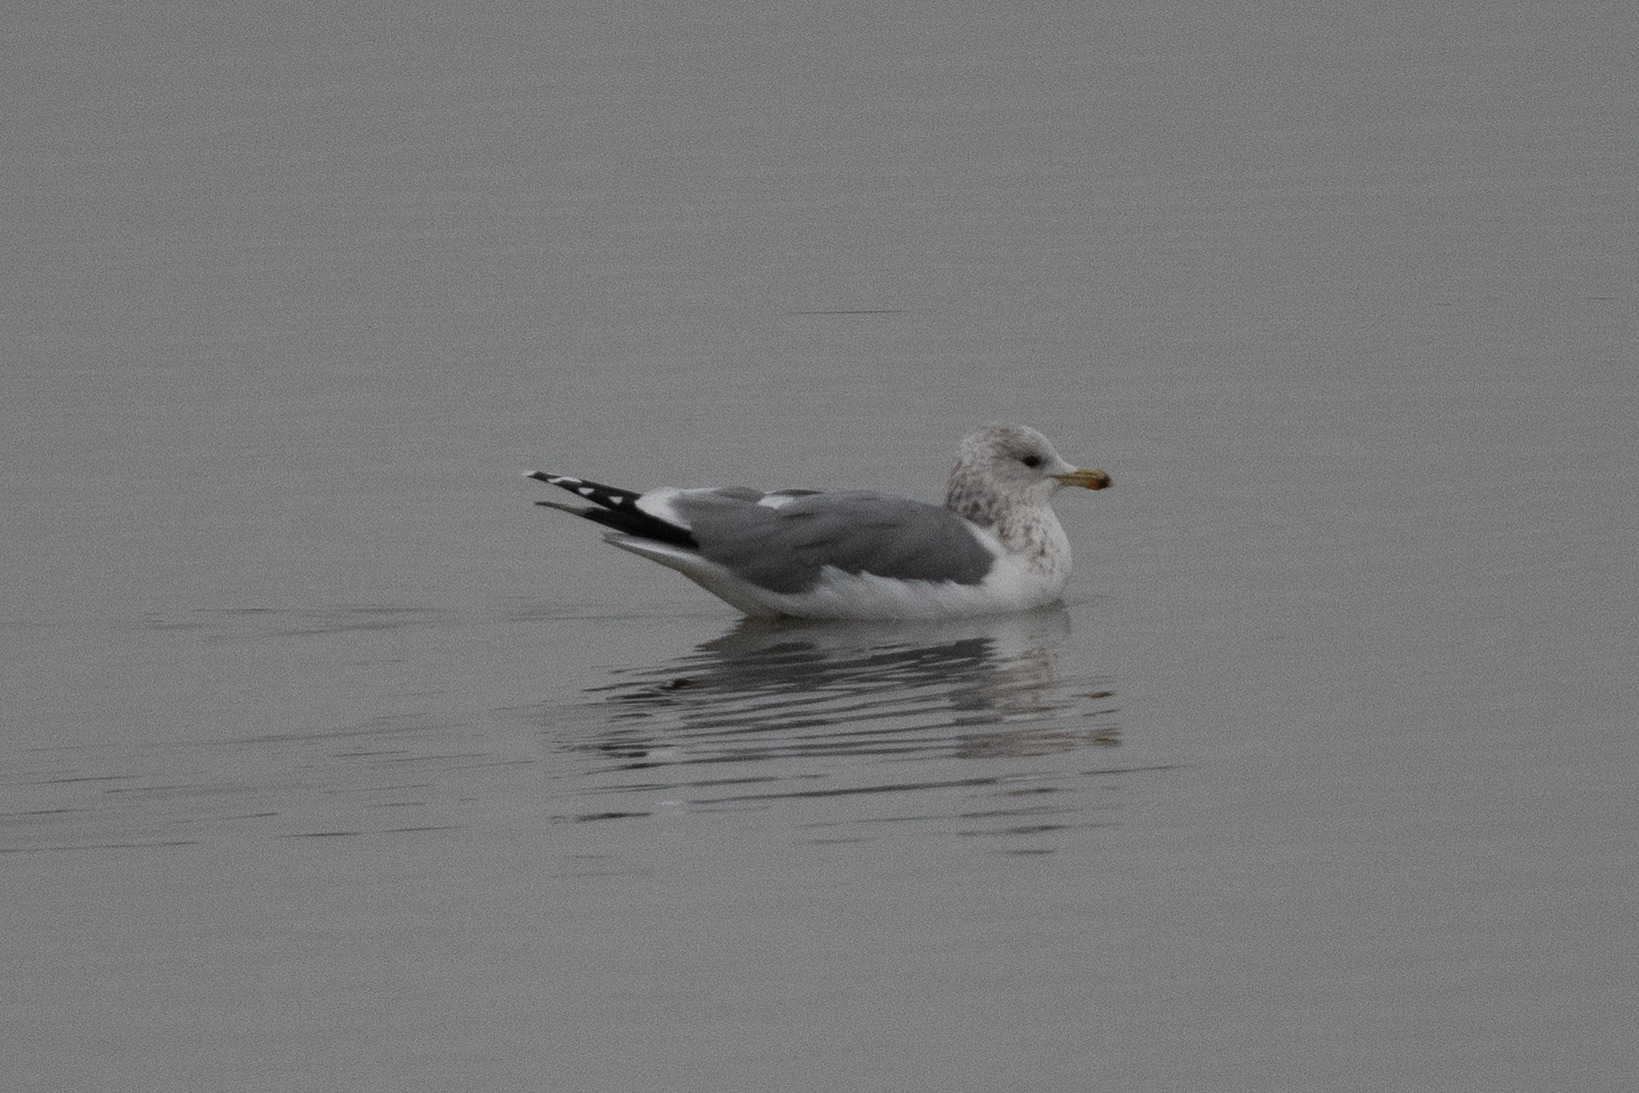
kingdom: Animalia
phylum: Chordata
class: Aves
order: Charadriiformes
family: Laridae
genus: Larus
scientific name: Larus californicus
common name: California gull
